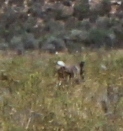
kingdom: Animalia
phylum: Chordata
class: Mammalia
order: Artiodactyla
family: Bovidae
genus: Pelea
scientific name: Pelea capreolus
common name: Common rhebok
